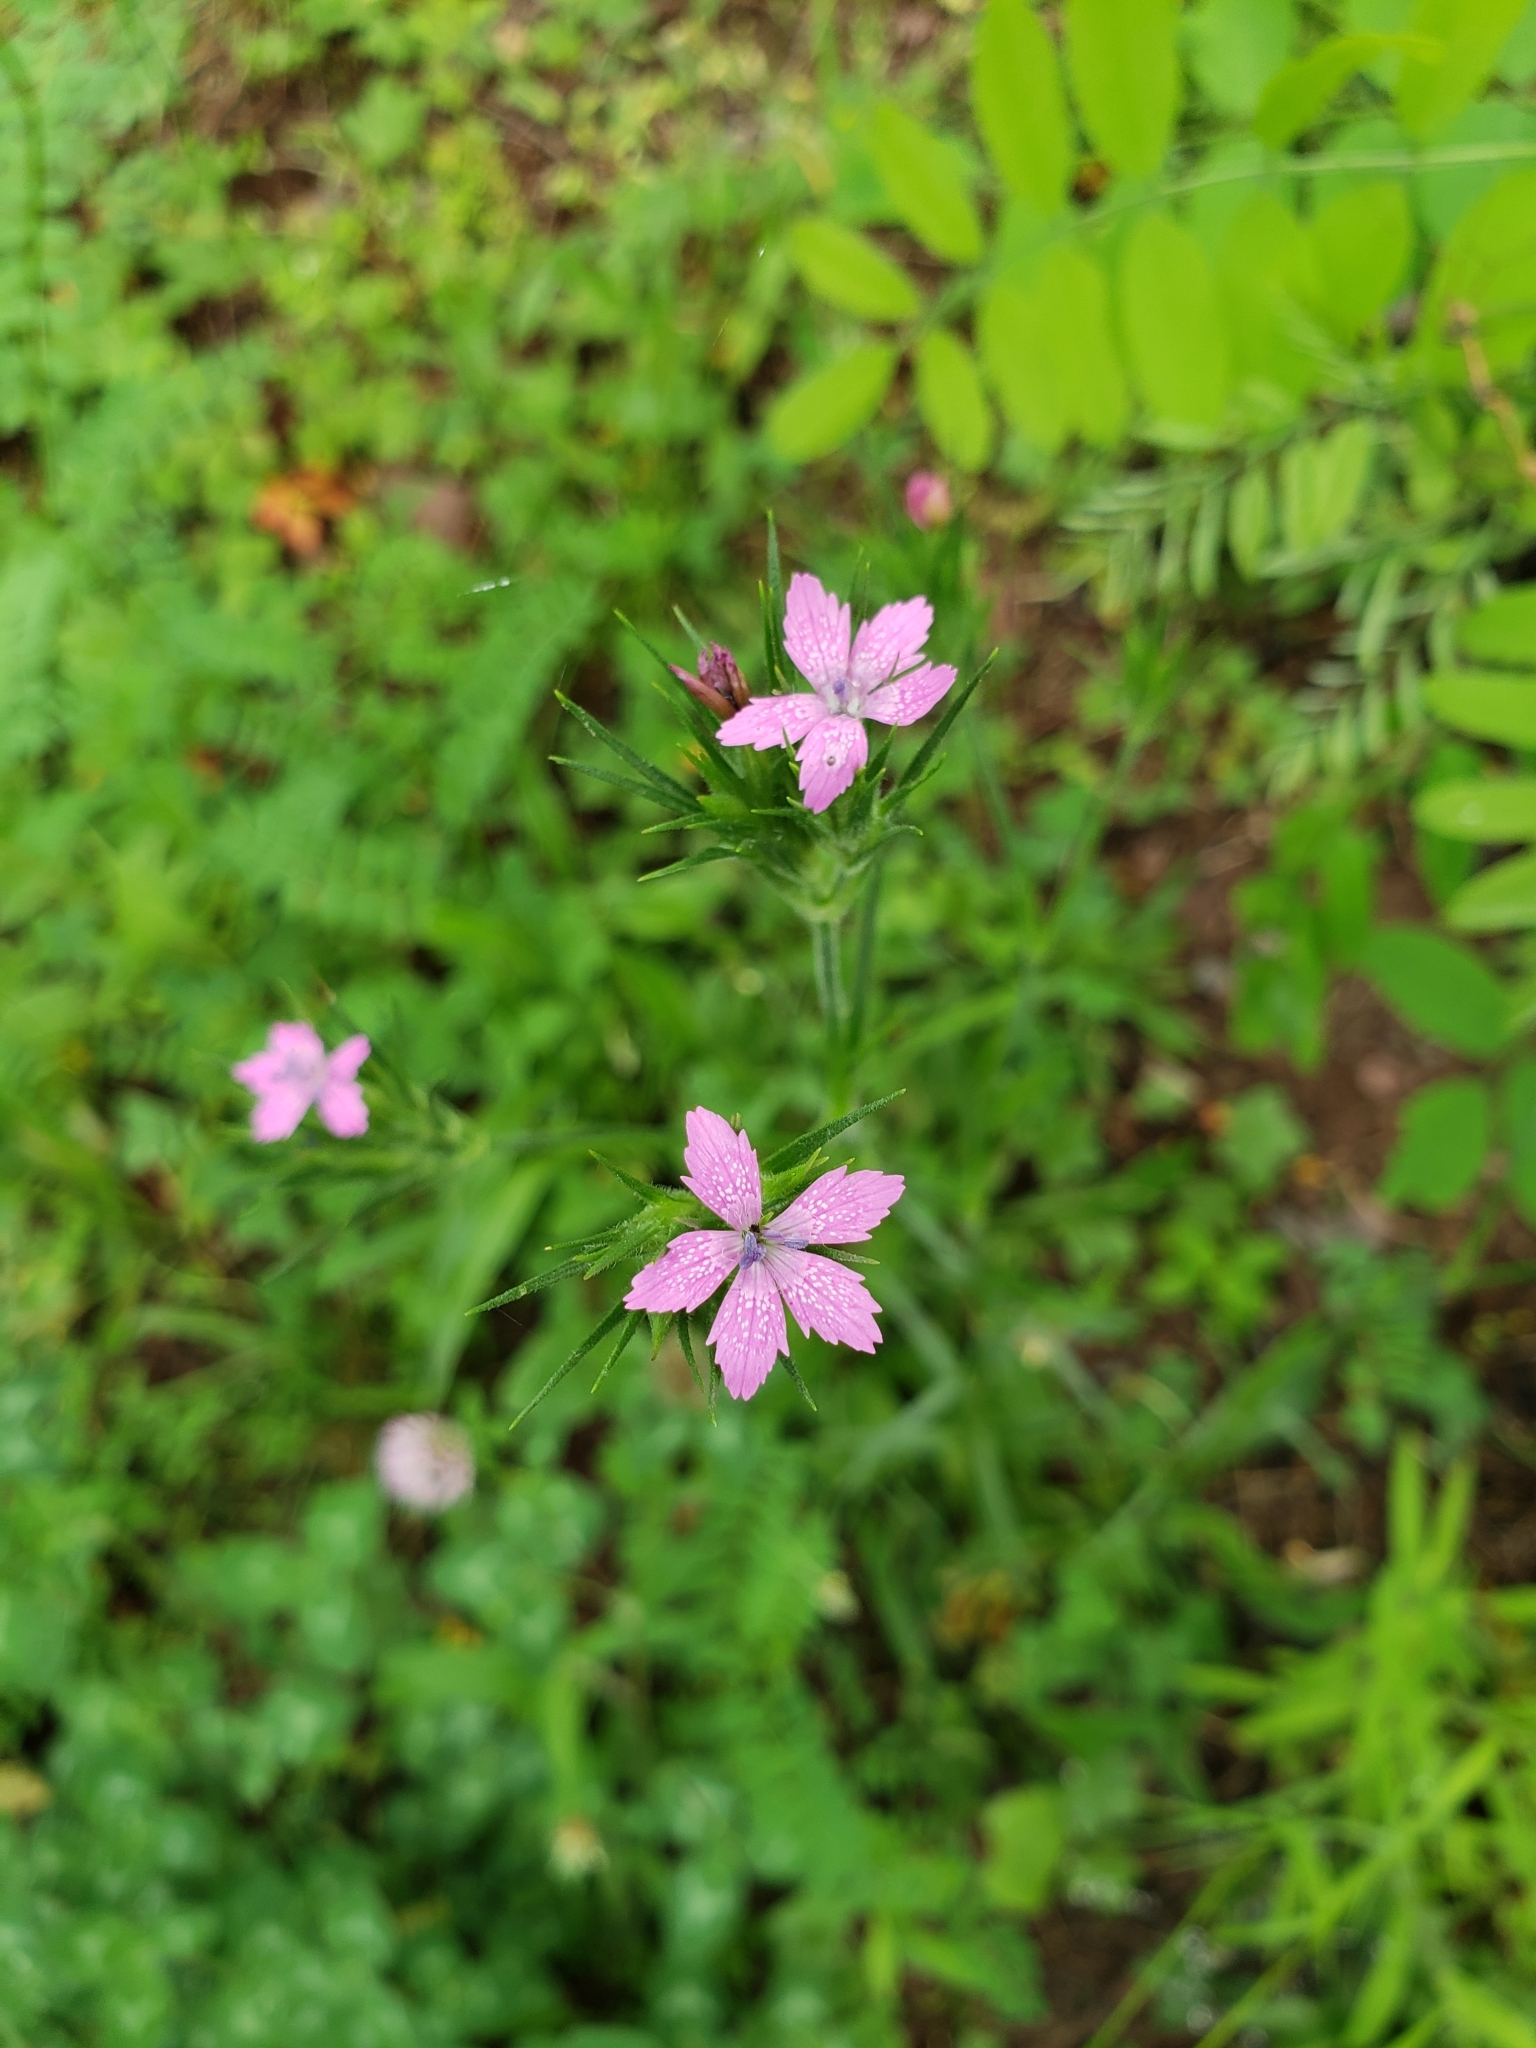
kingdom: Plantae
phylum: Tracheophyta
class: Magnoliopsida
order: Caryophyllales
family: Caryophyllaceae
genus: Dianthus
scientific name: Dianthus armeria
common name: Deptford pink
